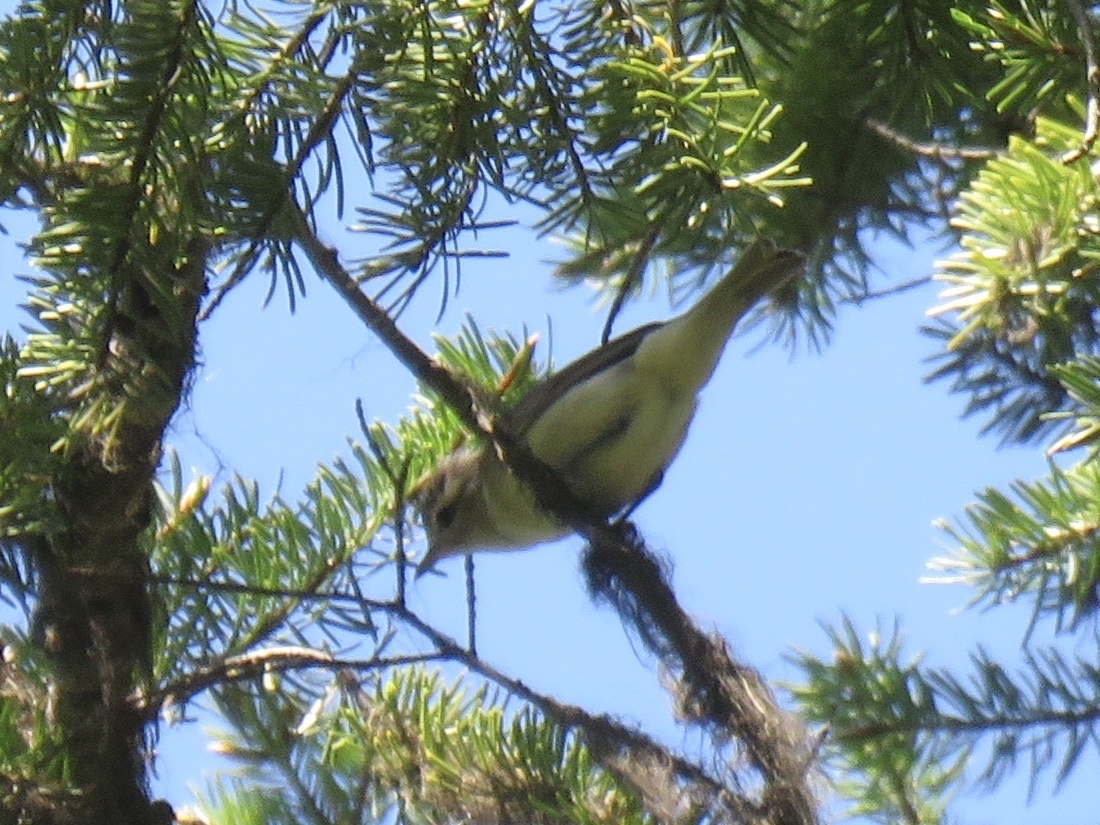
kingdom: Animalia
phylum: Chordata
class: Aves
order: Passeriformes
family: Vireonidae
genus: Vireo
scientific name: Vireo gilvus
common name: Warbling vireo
